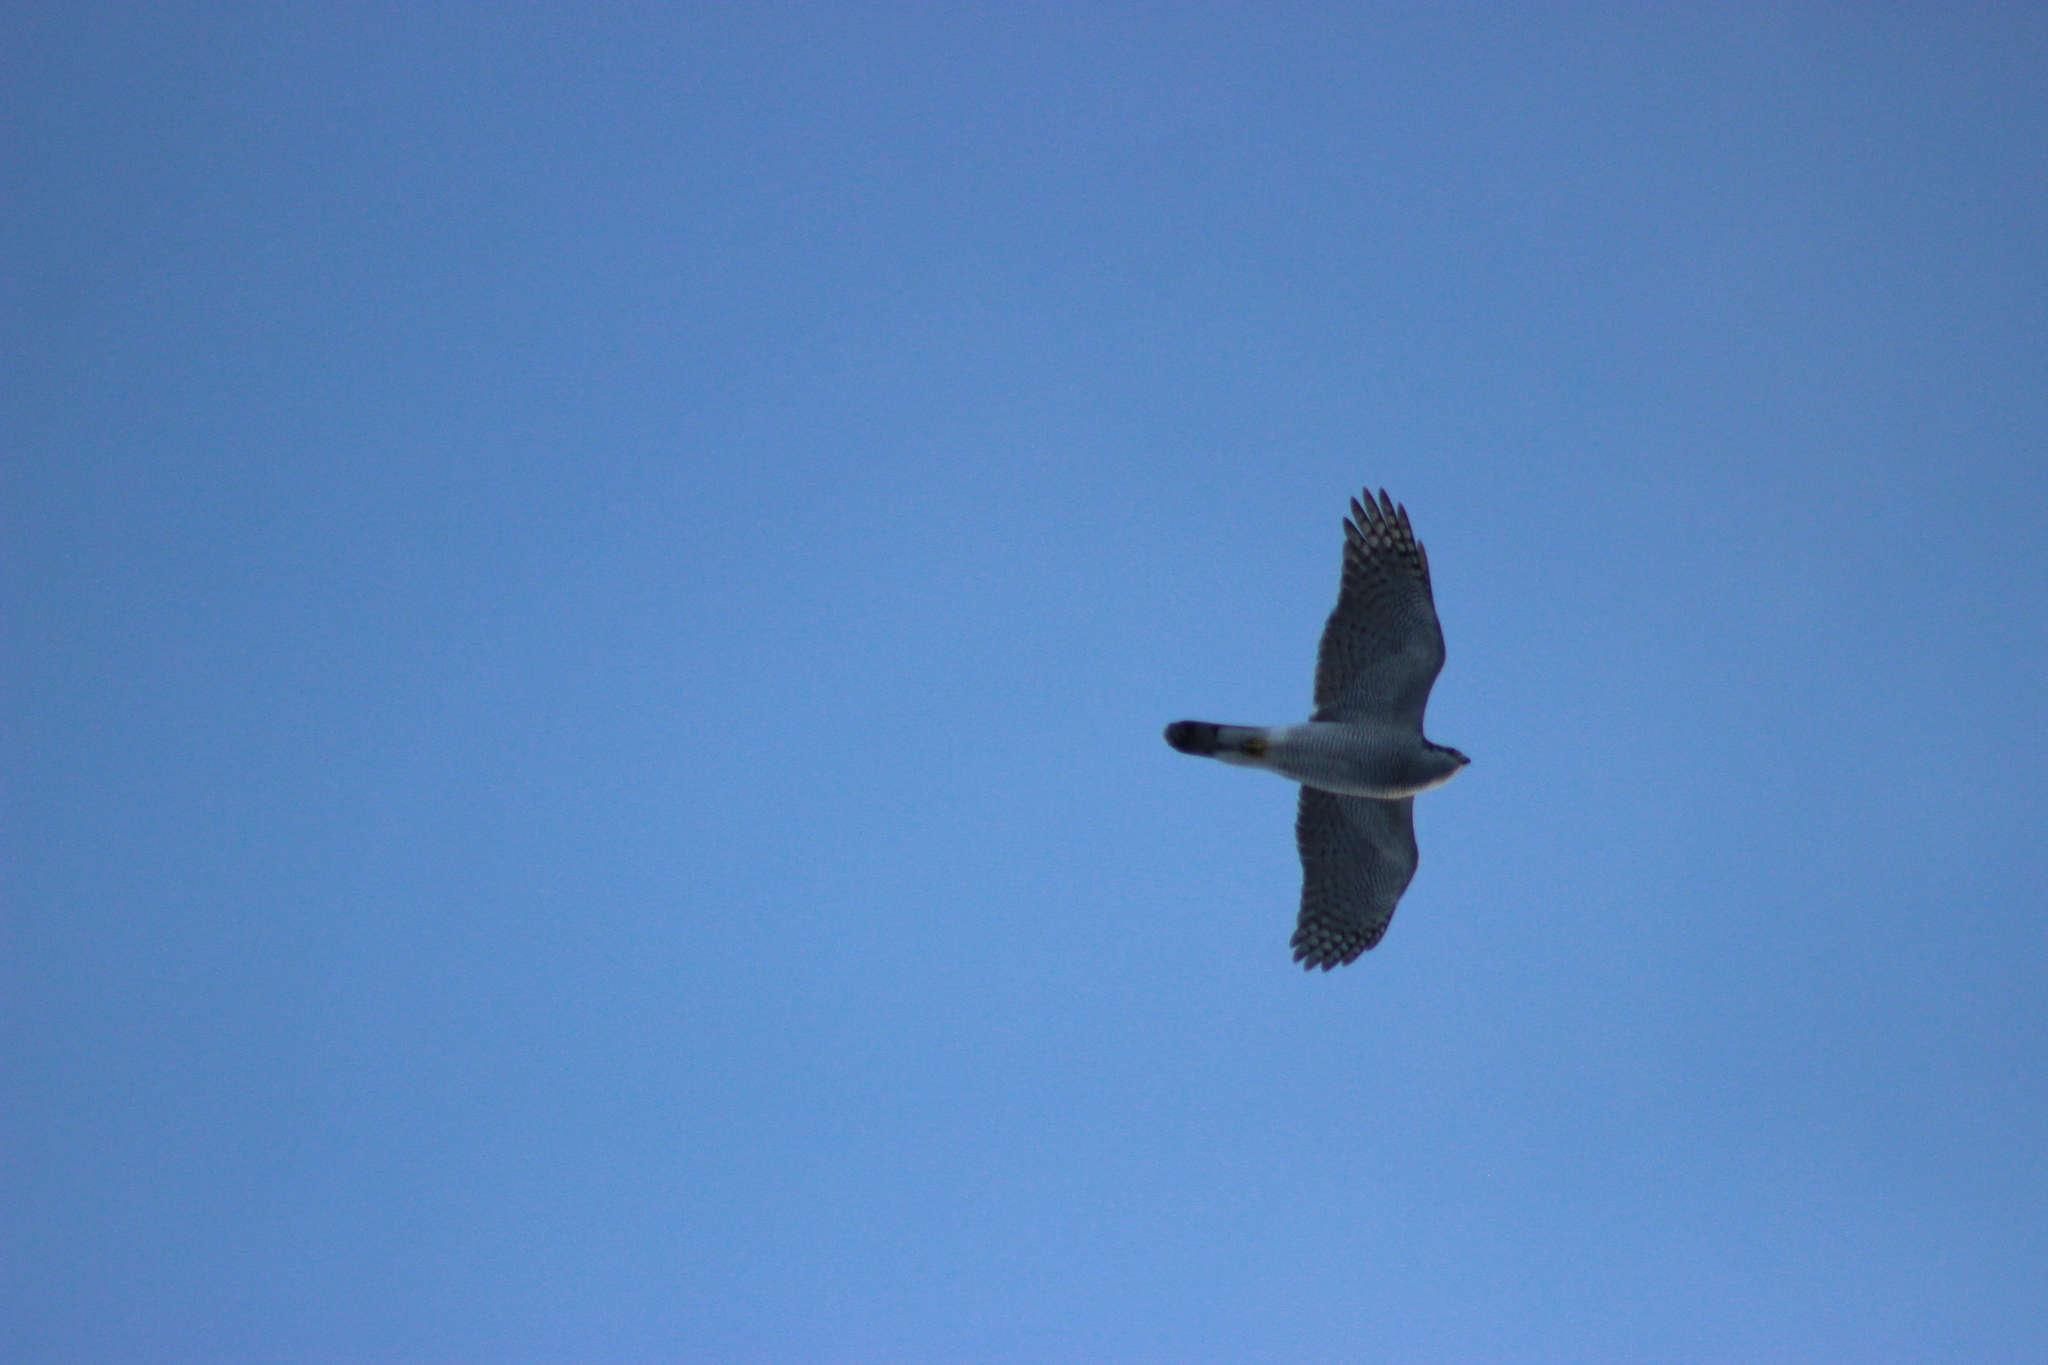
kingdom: Animalia
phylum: Chordata
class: Aves
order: Accipitriformes
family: Accipitridae
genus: Accipiter
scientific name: Accipiter gentilis
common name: Northern goshawk
